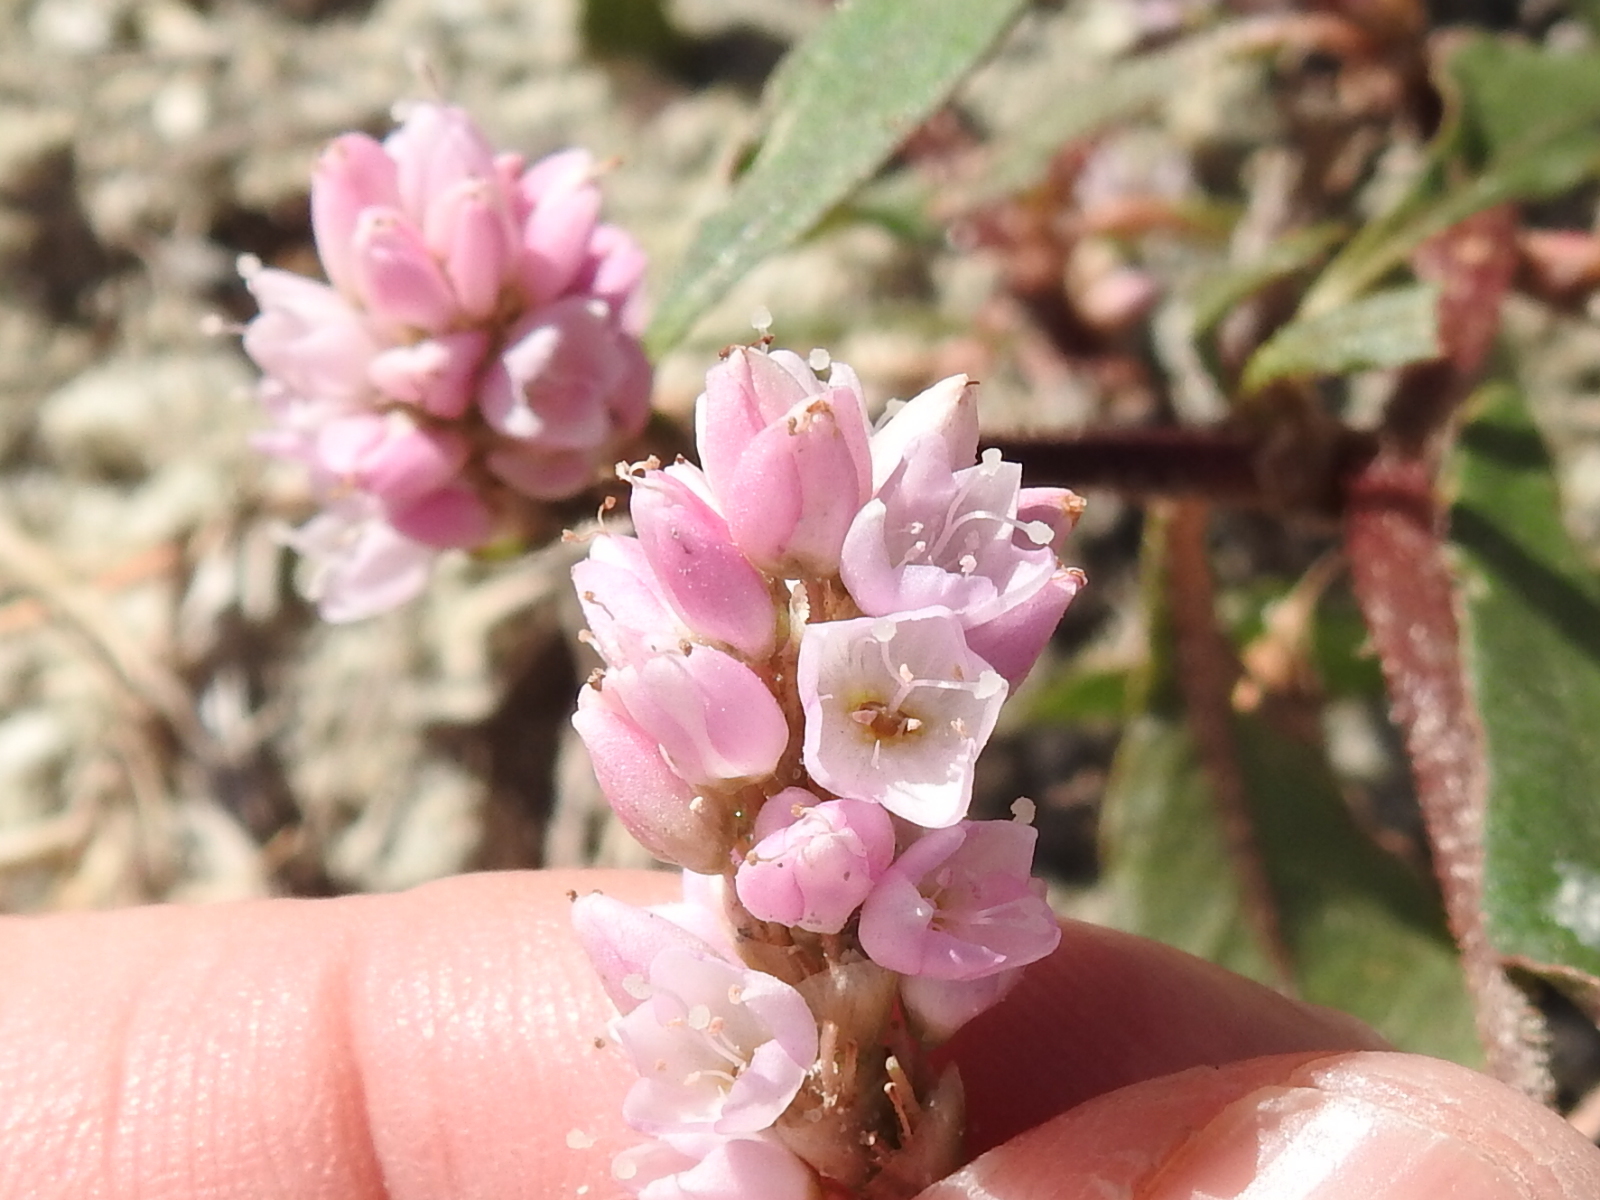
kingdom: Plantae
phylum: Tracheophyta
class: Magnoliopsida
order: Caryophyllales
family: Polygonaceae
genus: Persicaria
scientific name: Persicaria bicornis
